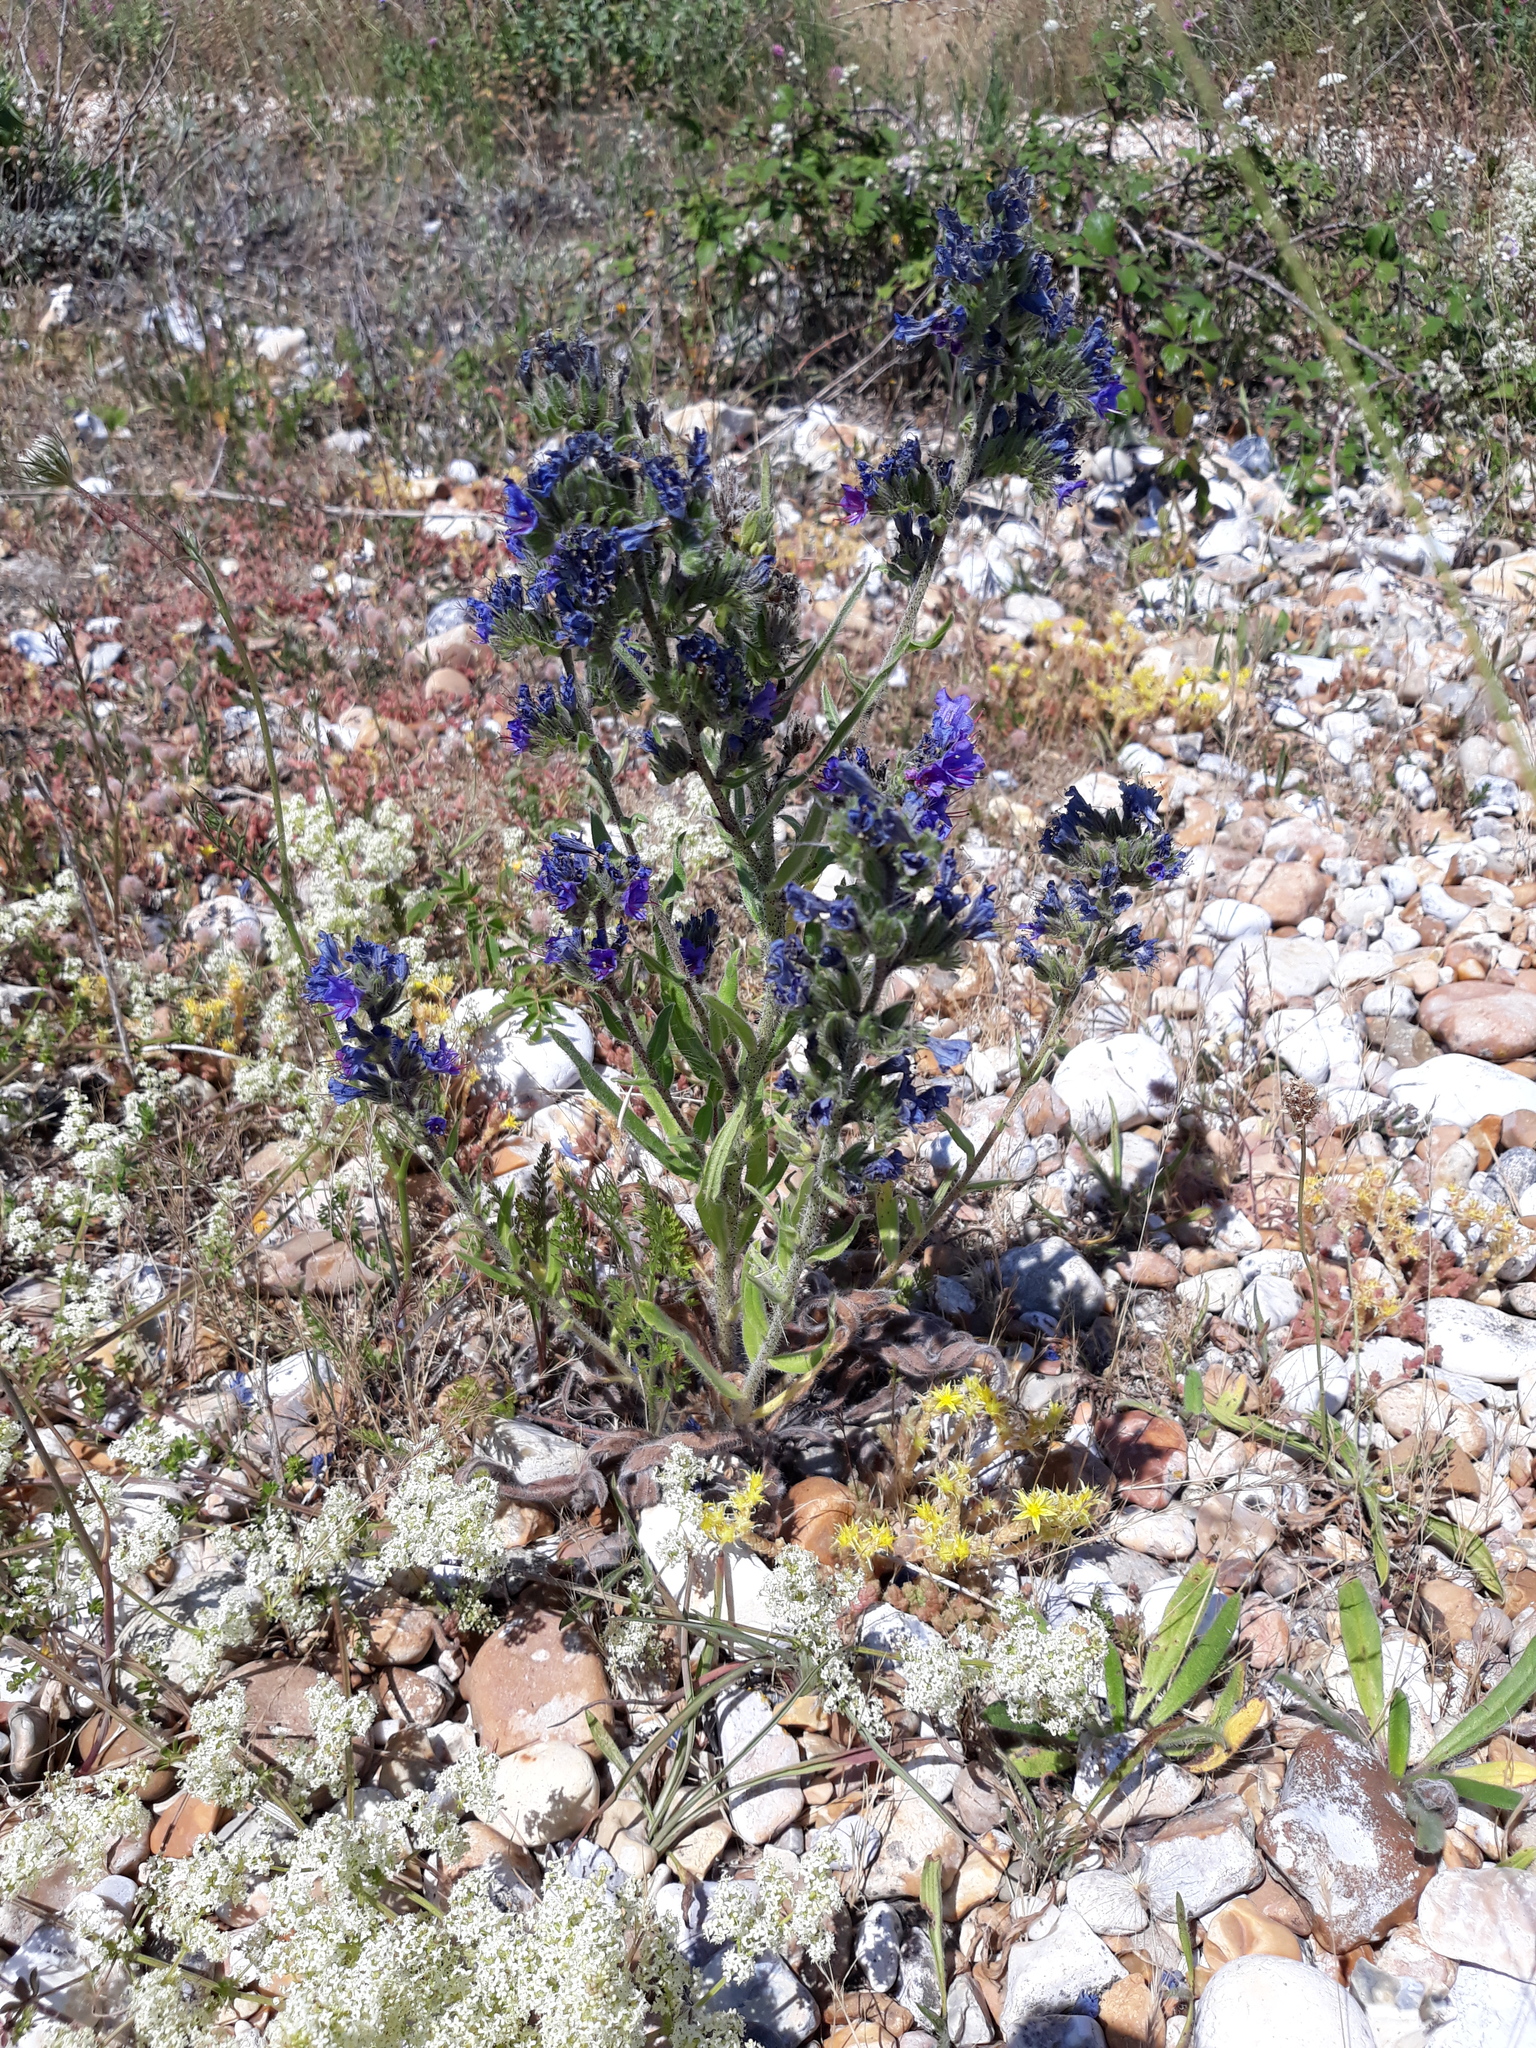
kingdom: Plantae
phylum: Tracheophyta
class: Magnoliopsida
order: Boraginales
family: Boraginaceae
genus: Echium
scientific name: Echium vulgare
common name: Common viper's bugloss
